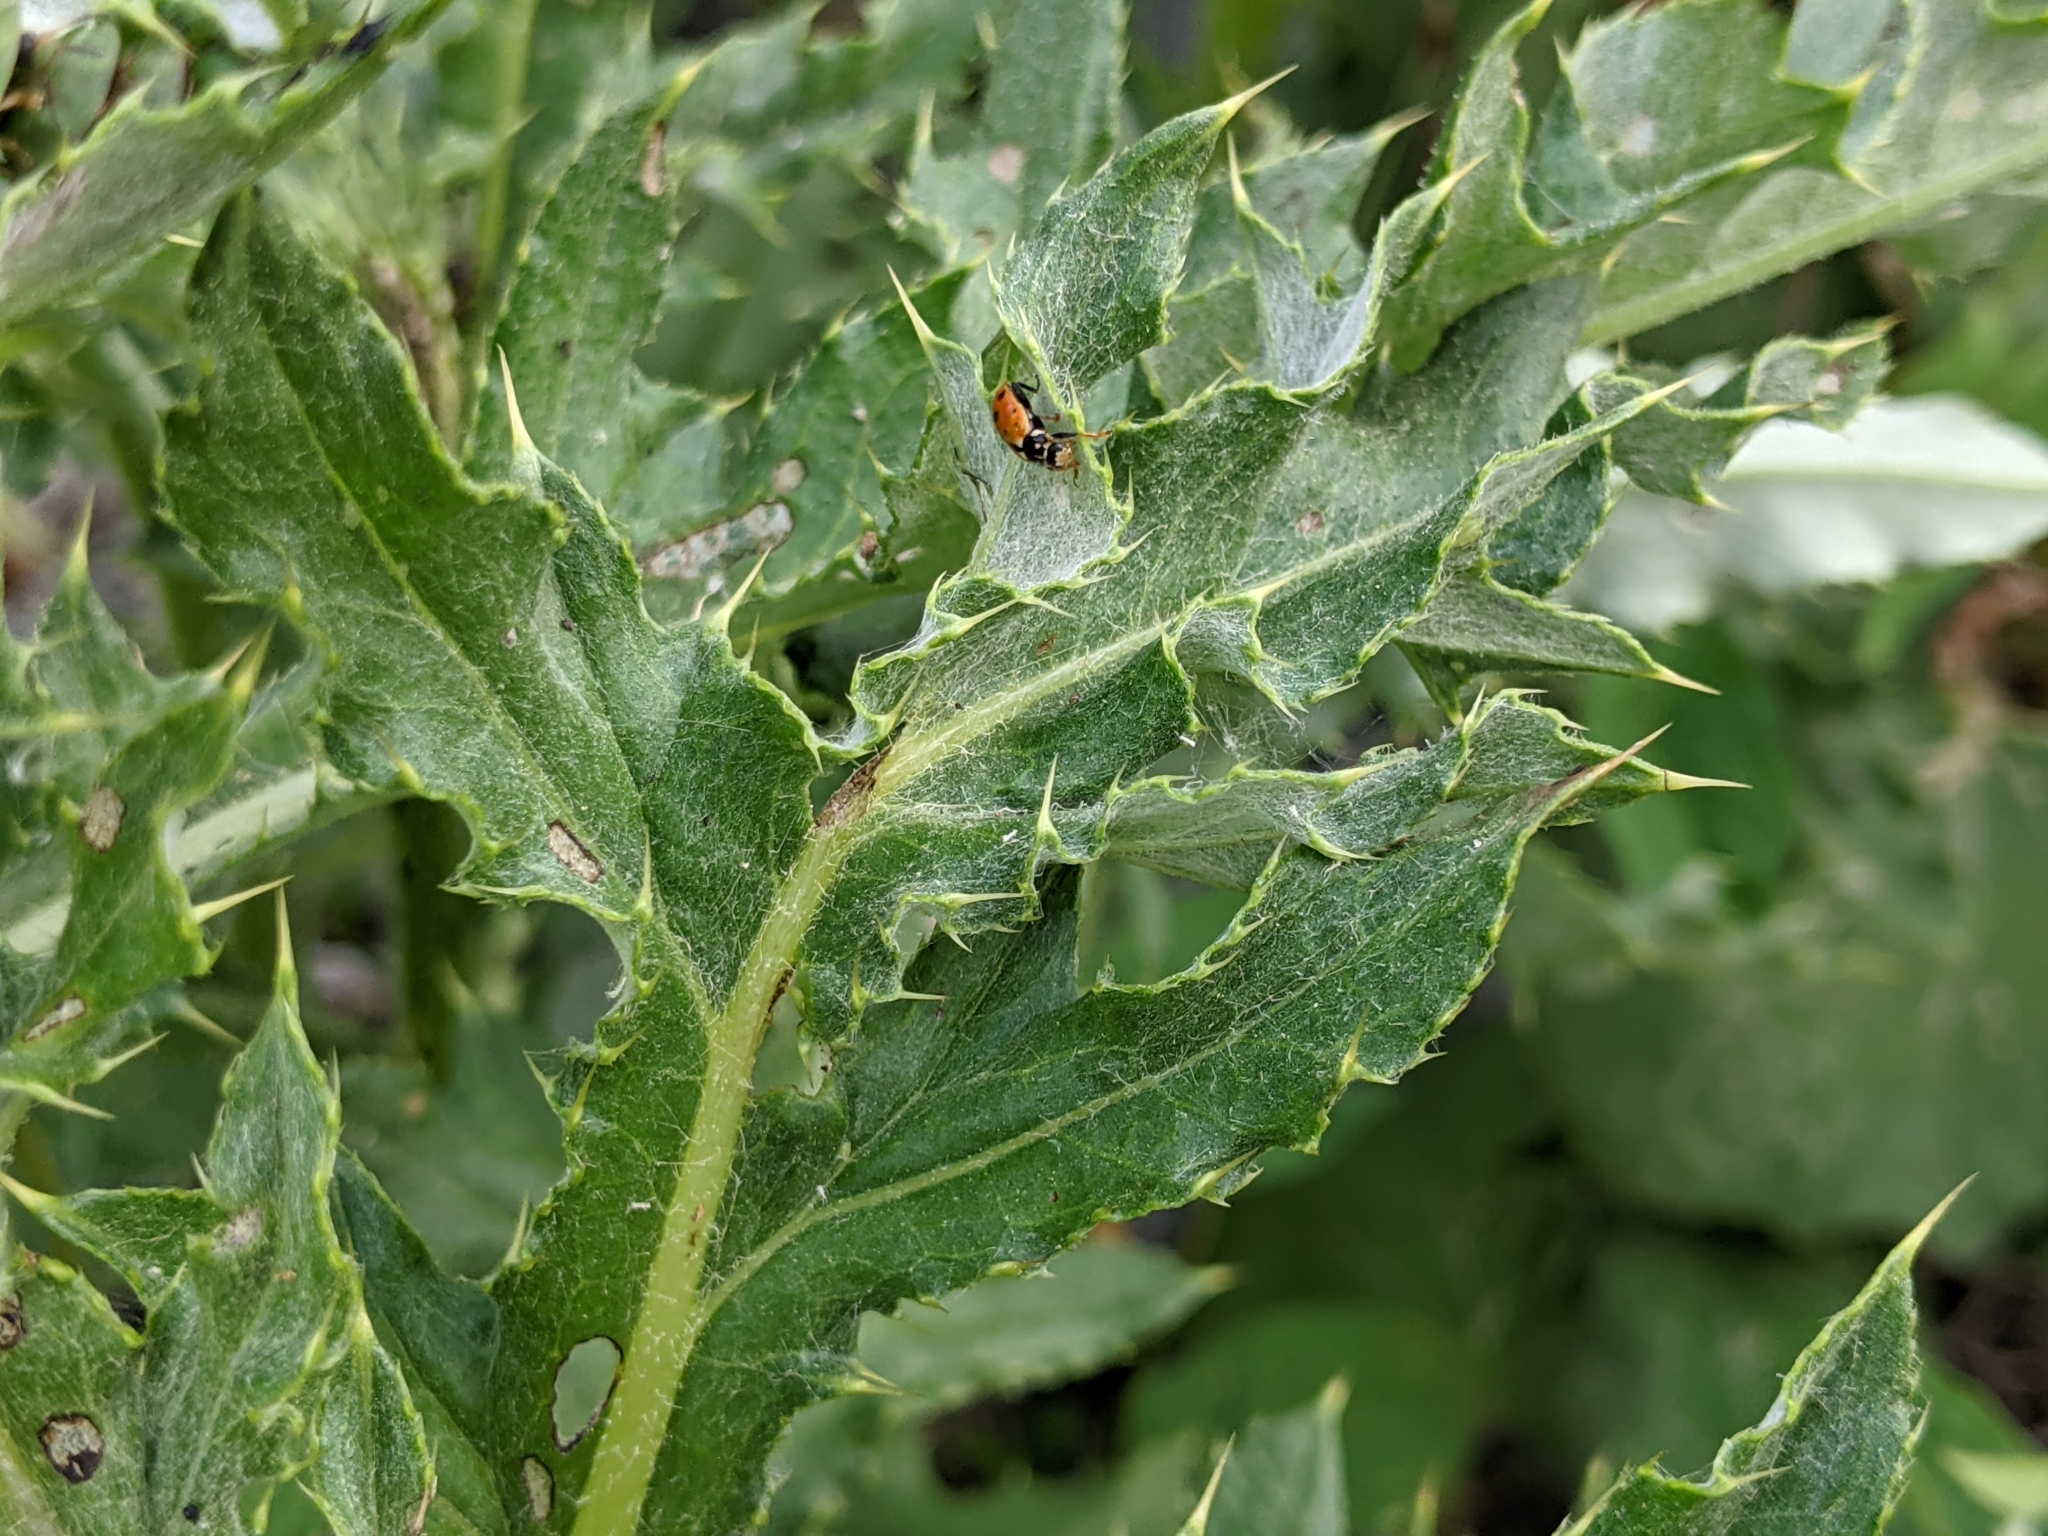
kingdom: Animalia
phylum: Arthropoda
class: Insecta
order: Coleoptera
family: Coccinellidae
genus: Hippodamia
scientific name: Hippodamia variegata
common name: Ladybird beetle
